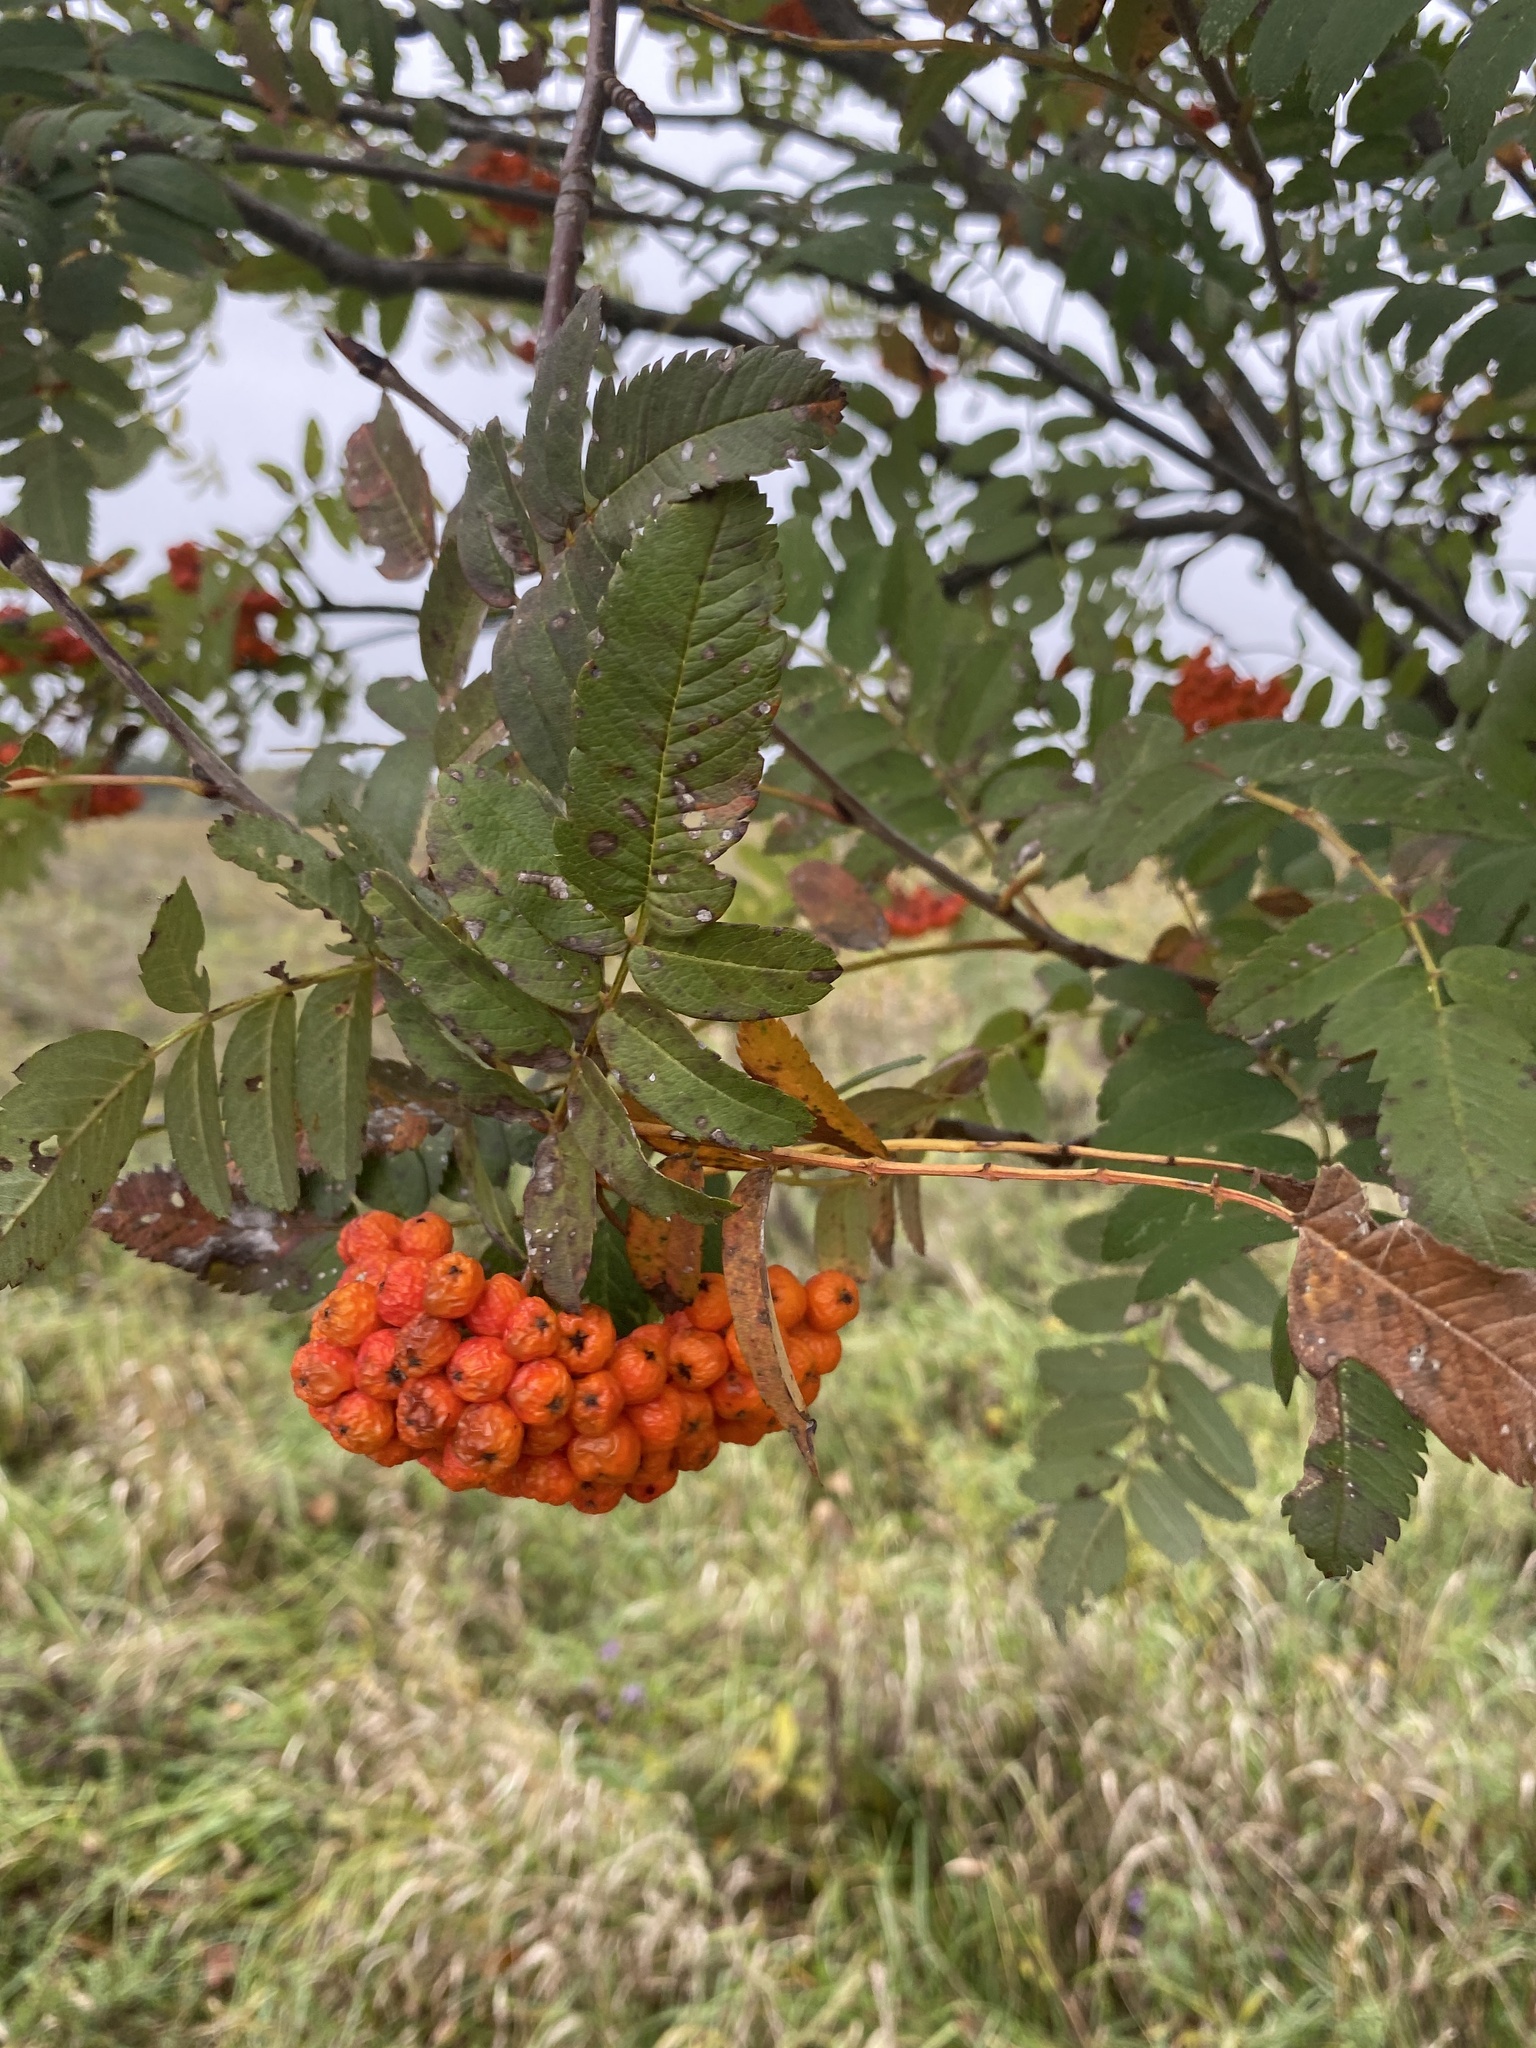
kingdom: Plantae
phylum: Tracheophyta
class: Magnoliopsida
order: Rosales
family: Rosaceae
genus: Sorbus
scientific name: Sorbus aucuparia
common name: Rowan
